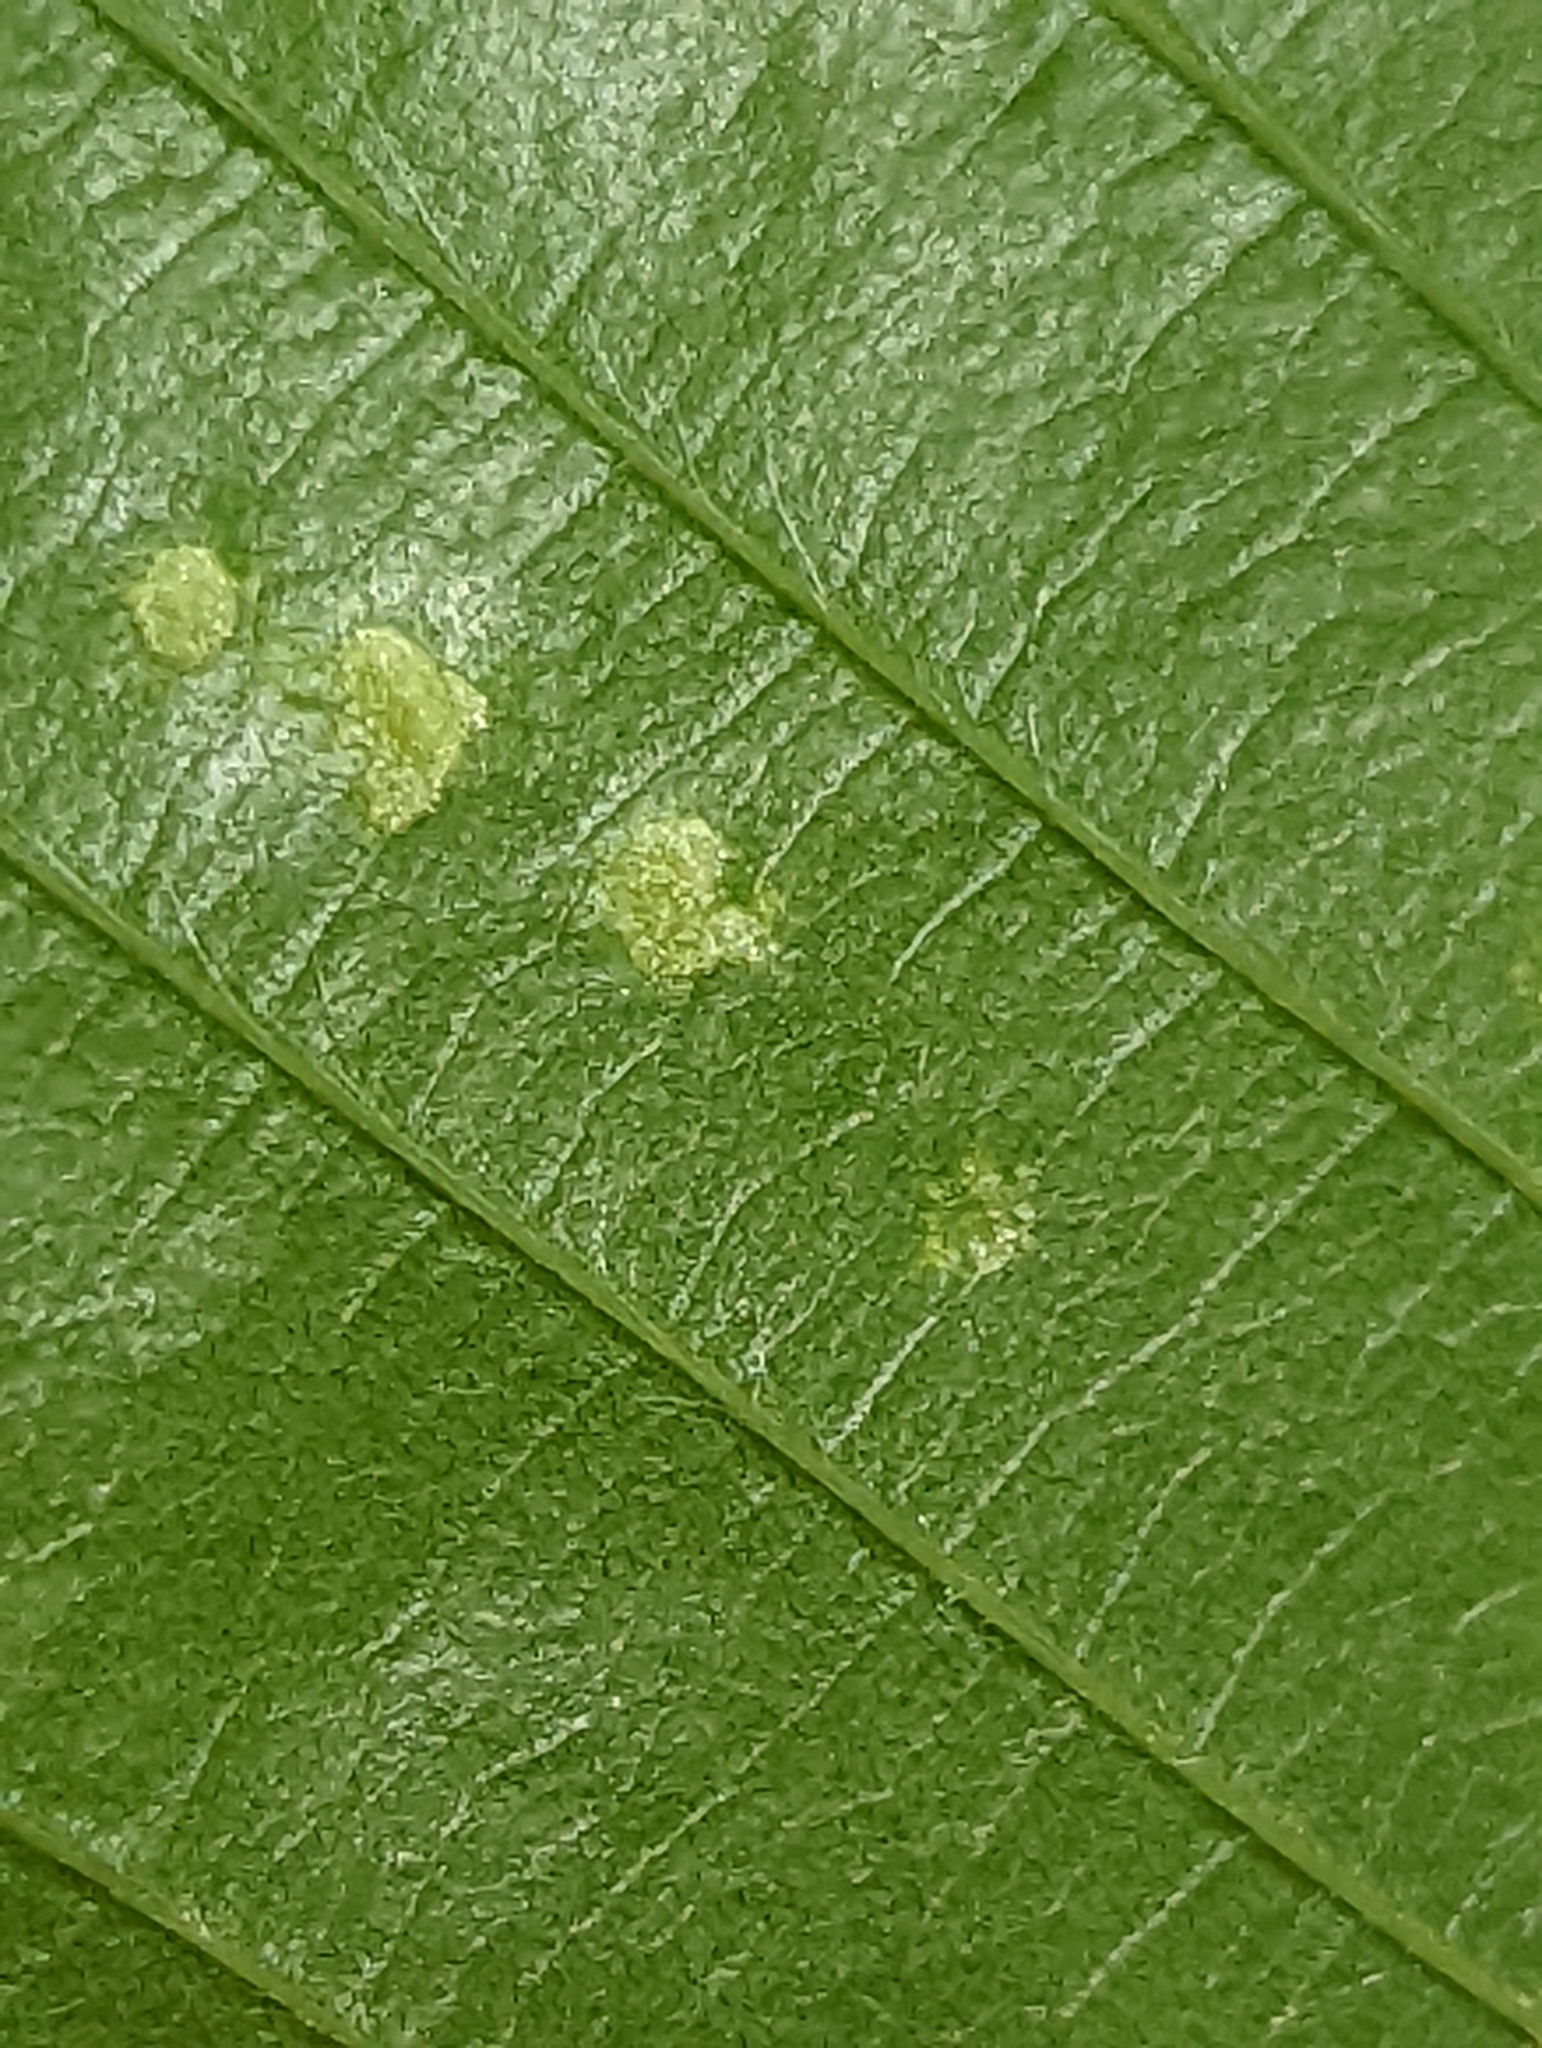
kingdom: Animalia
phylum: Arthropoda
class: Arachnida
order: Trombidiformes
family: Eriophyidae
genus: Acalitus
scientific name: Acalitus
